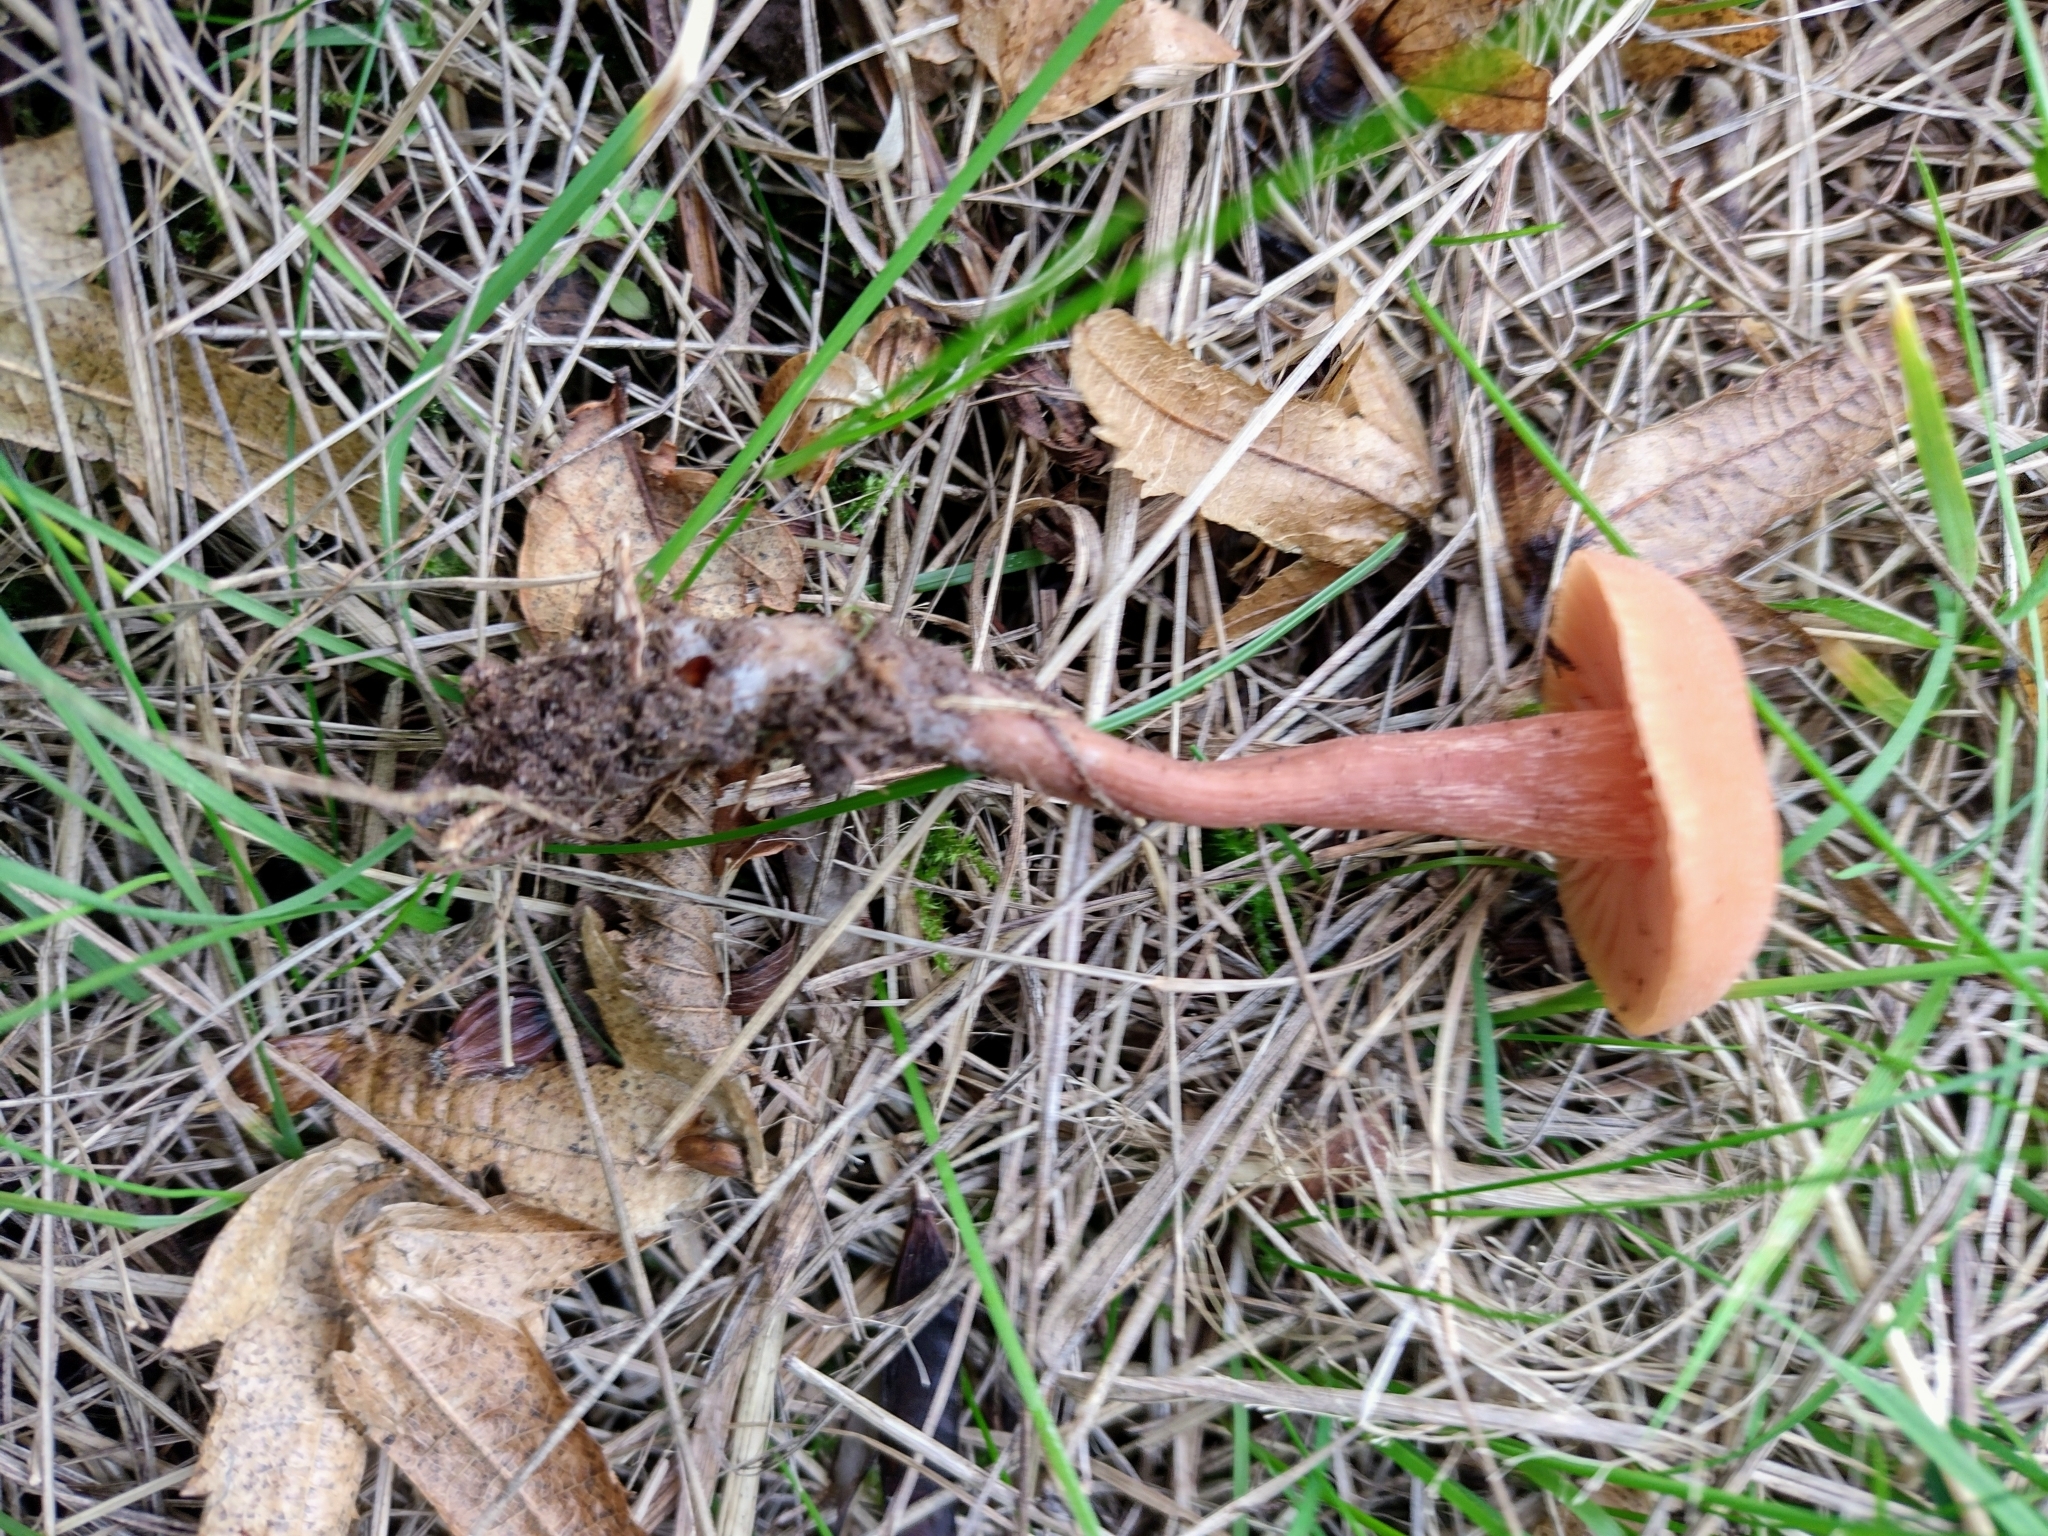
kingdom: Fungi
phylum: Basidiomycota
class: Agaricomycetes
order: Agaricales
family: Hydnangiaceae
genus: Laccaria
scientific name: Laccaria laccata
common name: Deceiver
